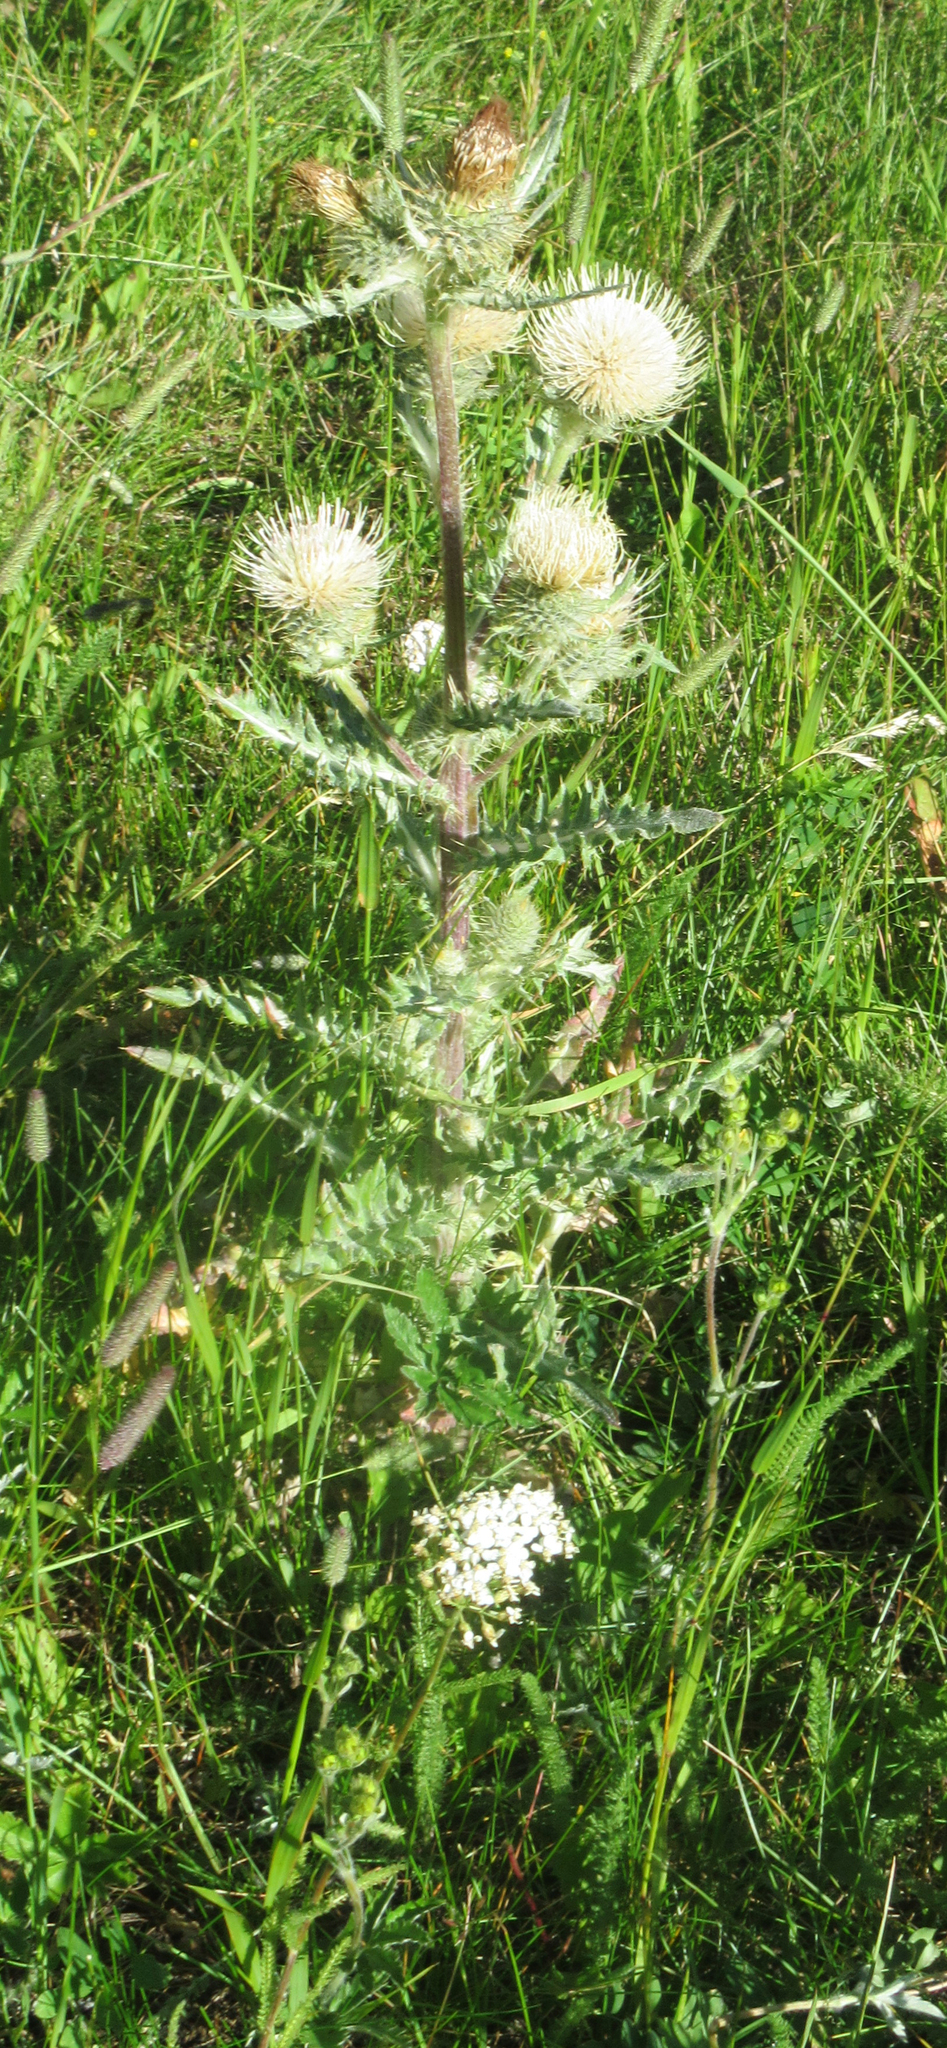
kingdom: Plantae
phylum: Tracheophyta
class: Magnoliopsida
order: Asterales
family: Asteraceae
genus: Cirsium
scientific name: Cirsium hookerianum
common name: Hooker's thistle
